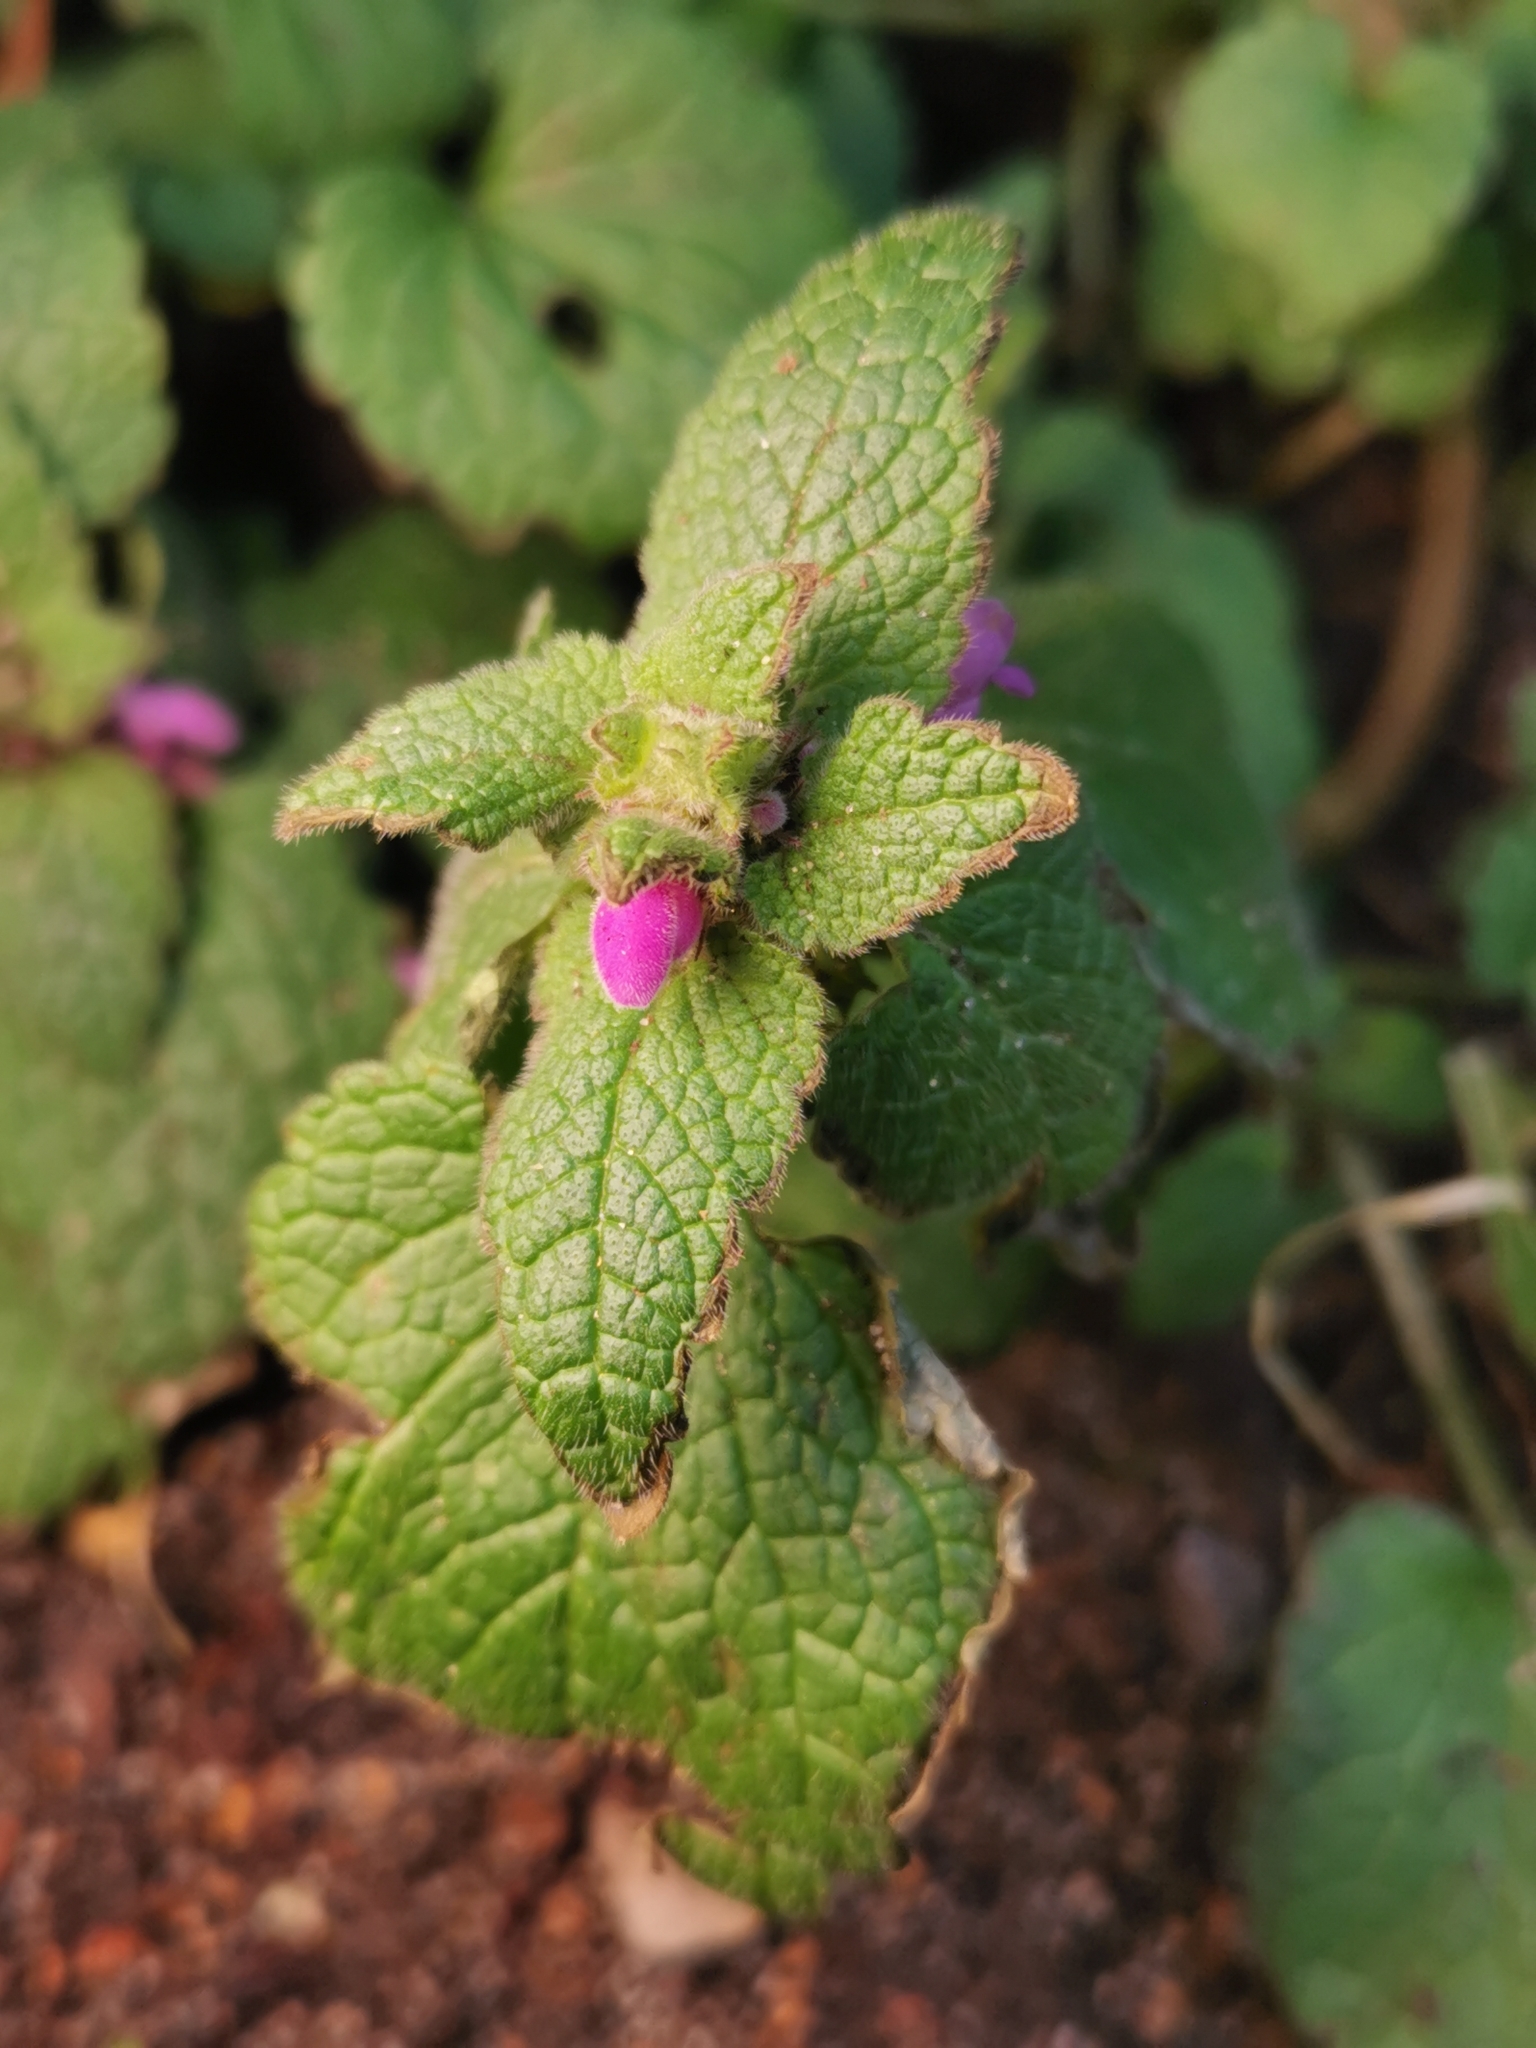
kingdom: Plantae
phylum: Tracheophyta
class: Magnoliopsida
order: Lamiales
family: Lamiaceae
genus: Lamium
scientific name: Lamium purpureum
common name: Red dead-nettle
